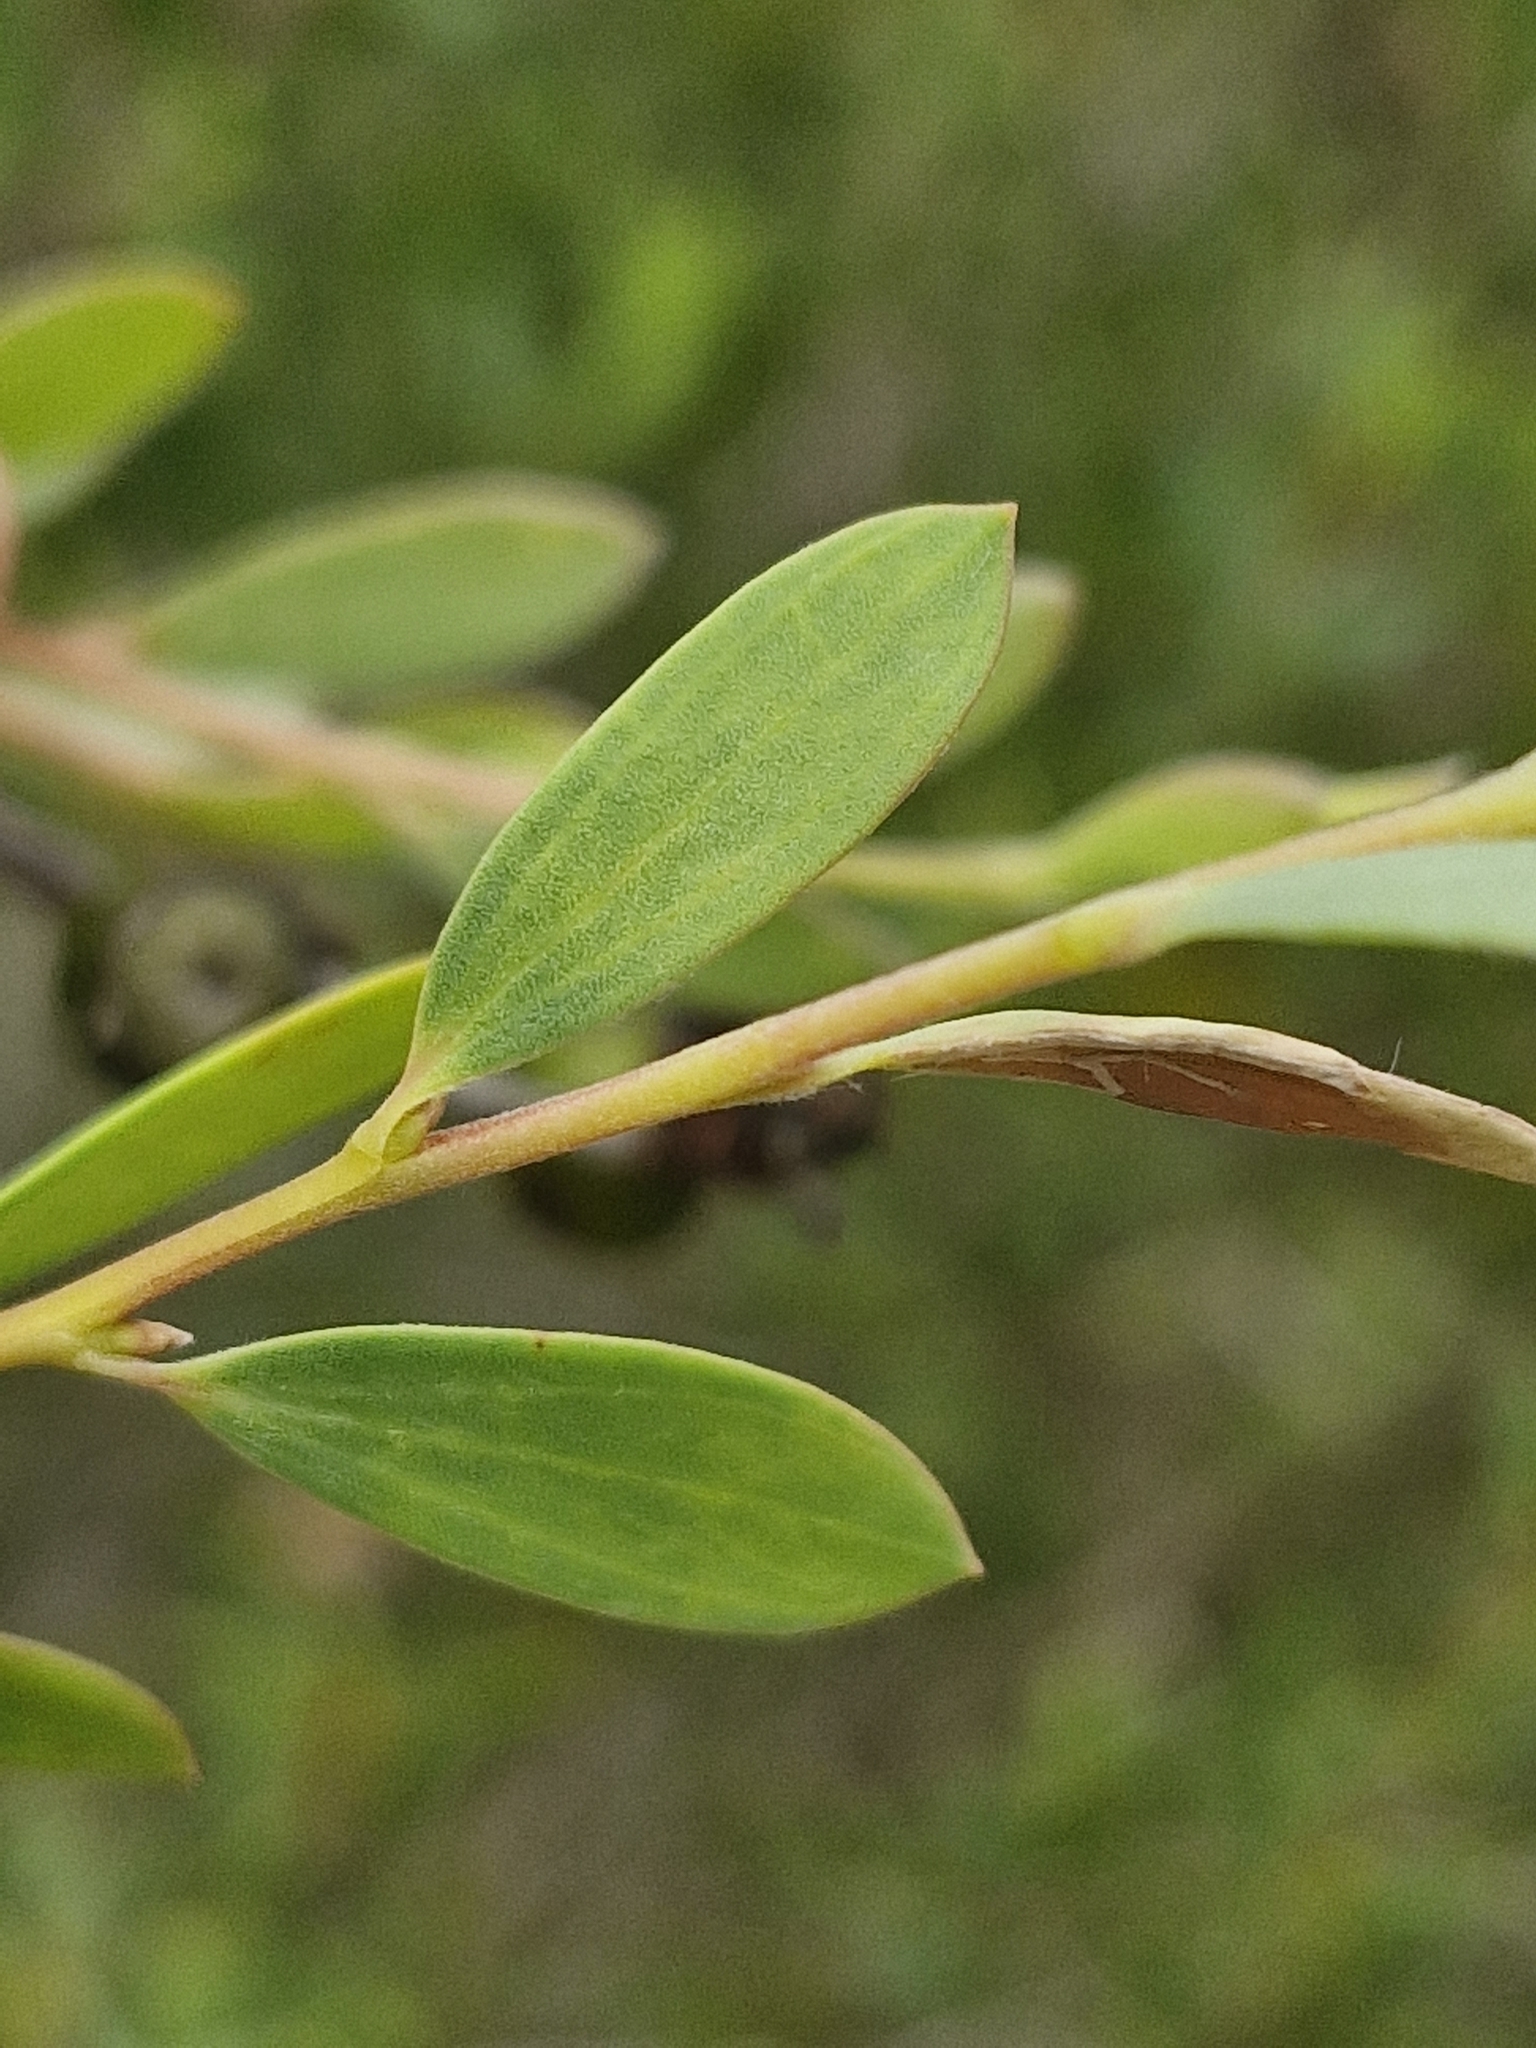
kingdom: Plantae
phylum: Tracheophyta
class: Magnoliopsida
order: Myrtales
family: Myrtaceae
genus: Leptospermum
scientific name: Leptospermum laevigatum
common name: Australian teatree
